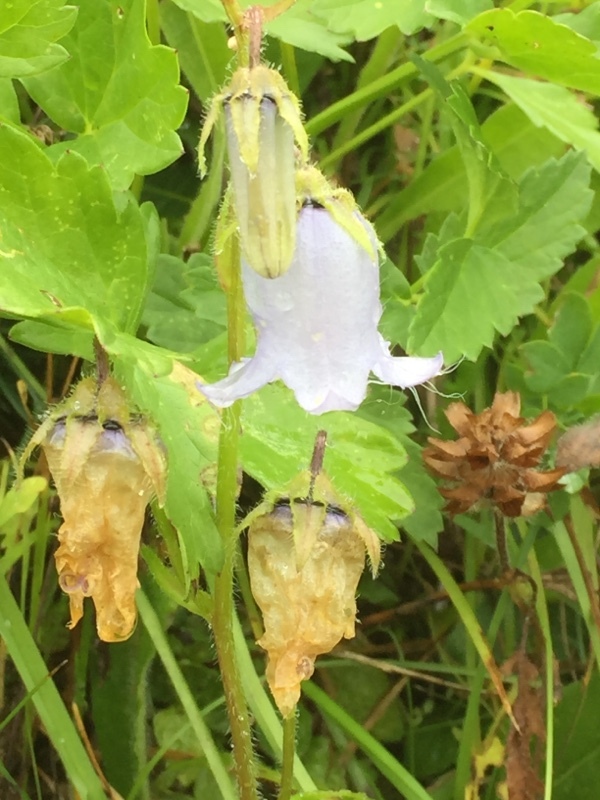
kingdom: Plantae
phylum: Tracheophyta
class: Magnoliopsida
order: Asterales
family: Campanulaceae
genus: Campanula
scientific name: Campanula barbata
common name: Bearded bellflower
